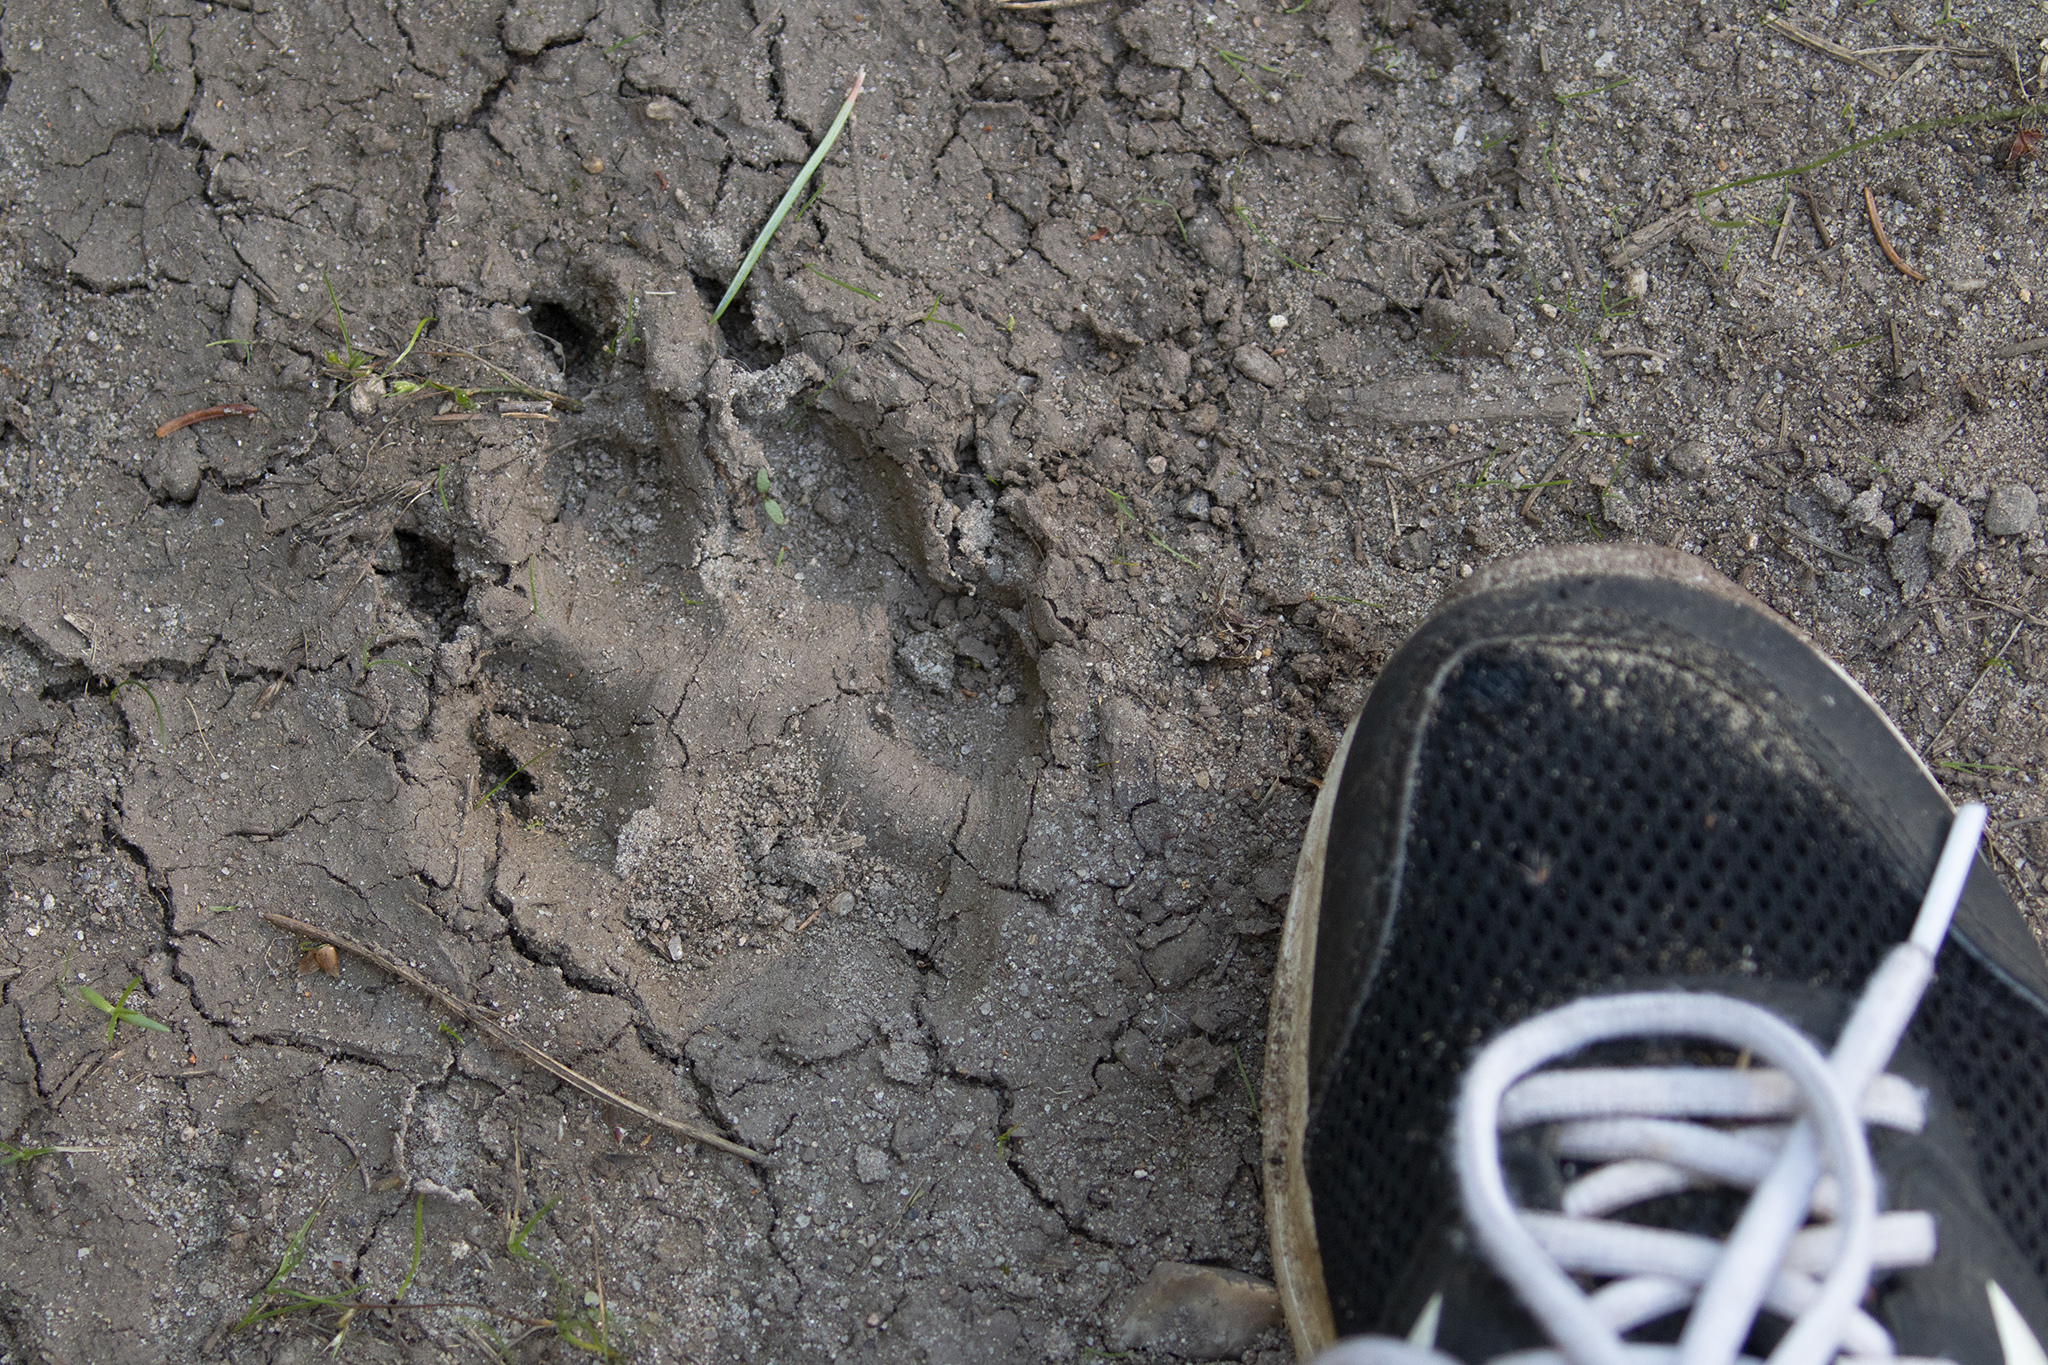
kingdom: Animalia
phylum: Chordata
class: Mammalia
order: Carnivora
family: Canidae
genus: Canis
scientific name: Canis lupus
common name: Gray wolf
